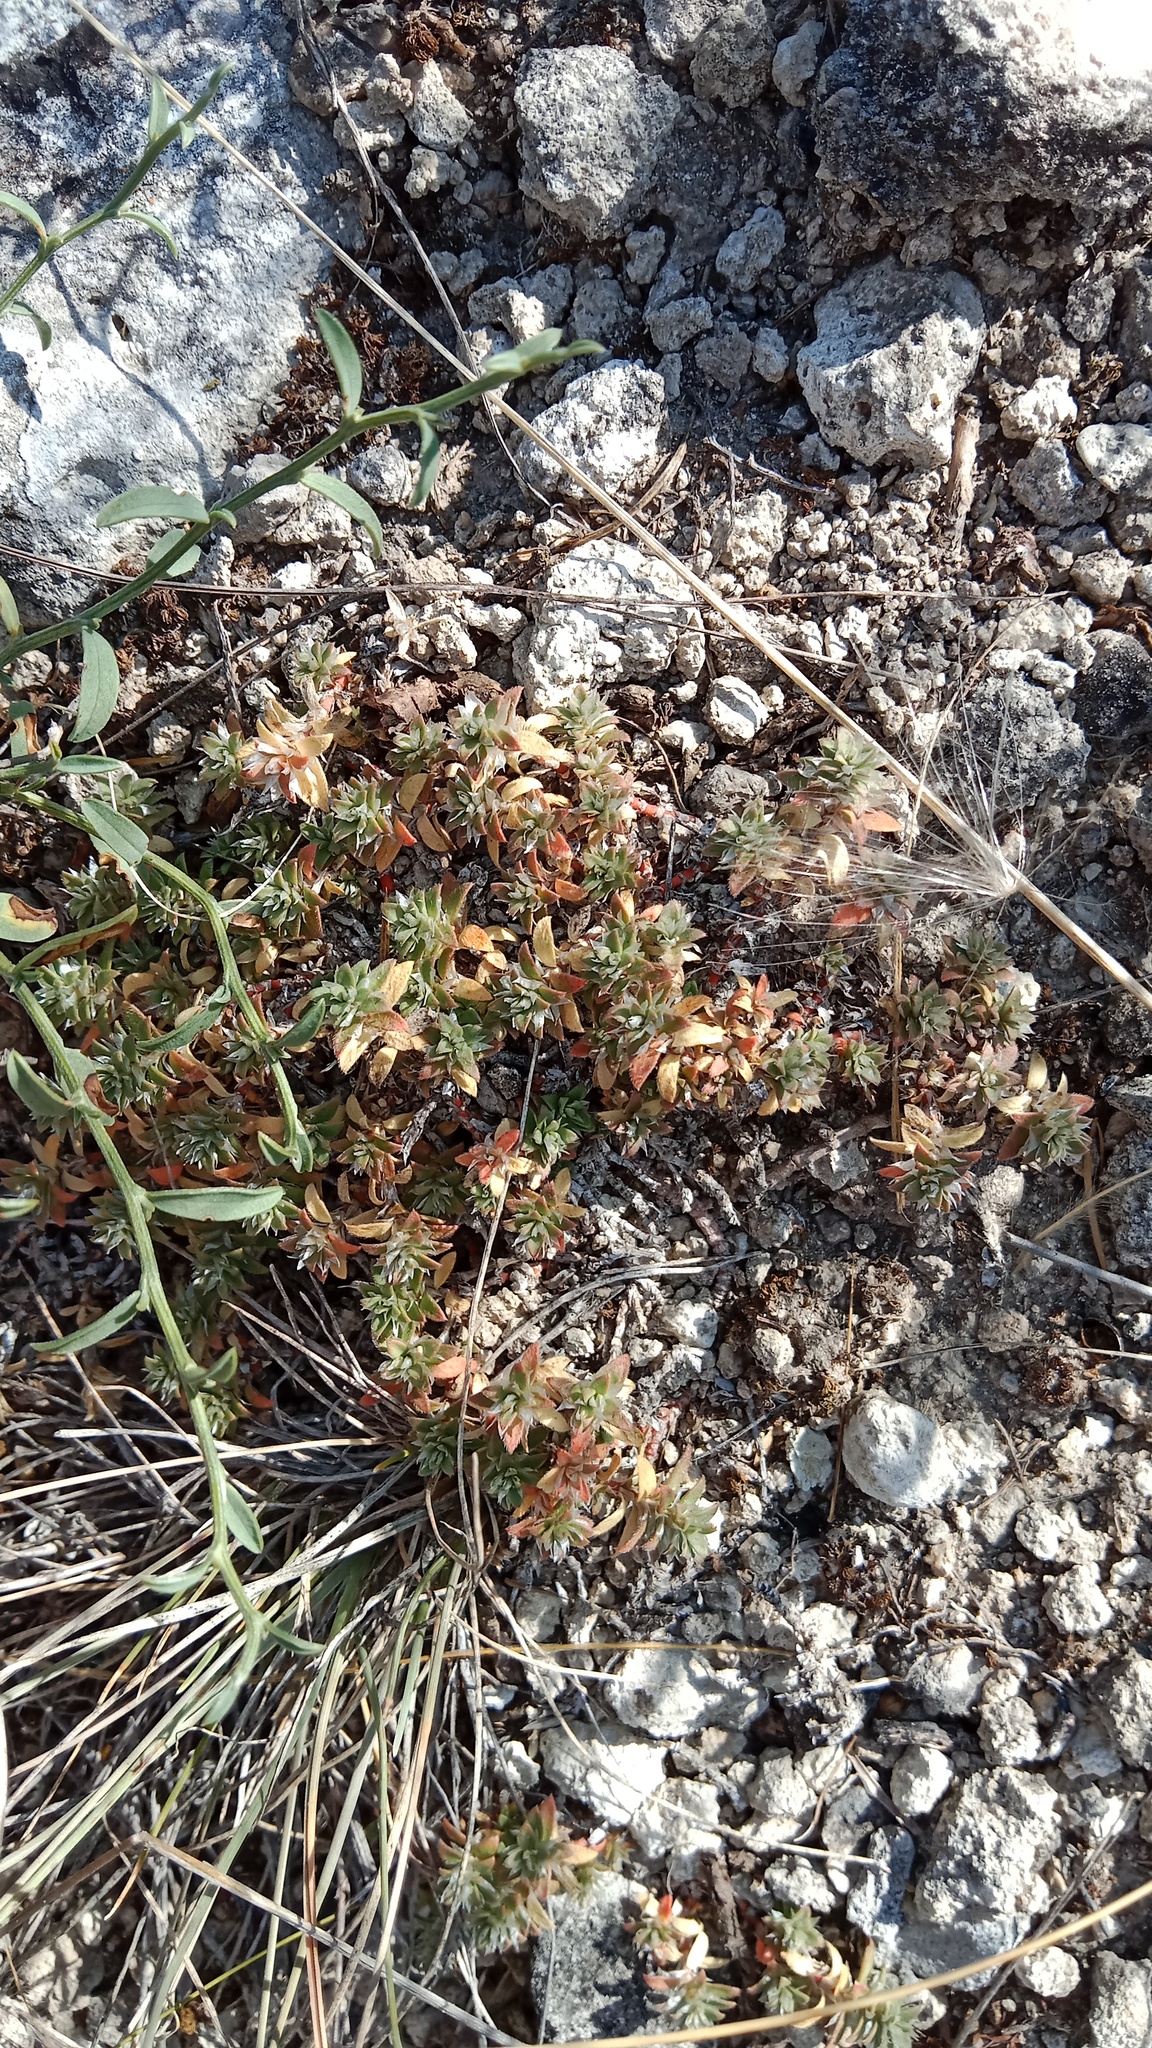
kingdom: Plantae
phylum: Tracheophyta
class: Magnoliopsida
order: Caryophyllales
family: Caryophyllaceae
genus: Paronychia
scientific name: Paronychia cephalotes
